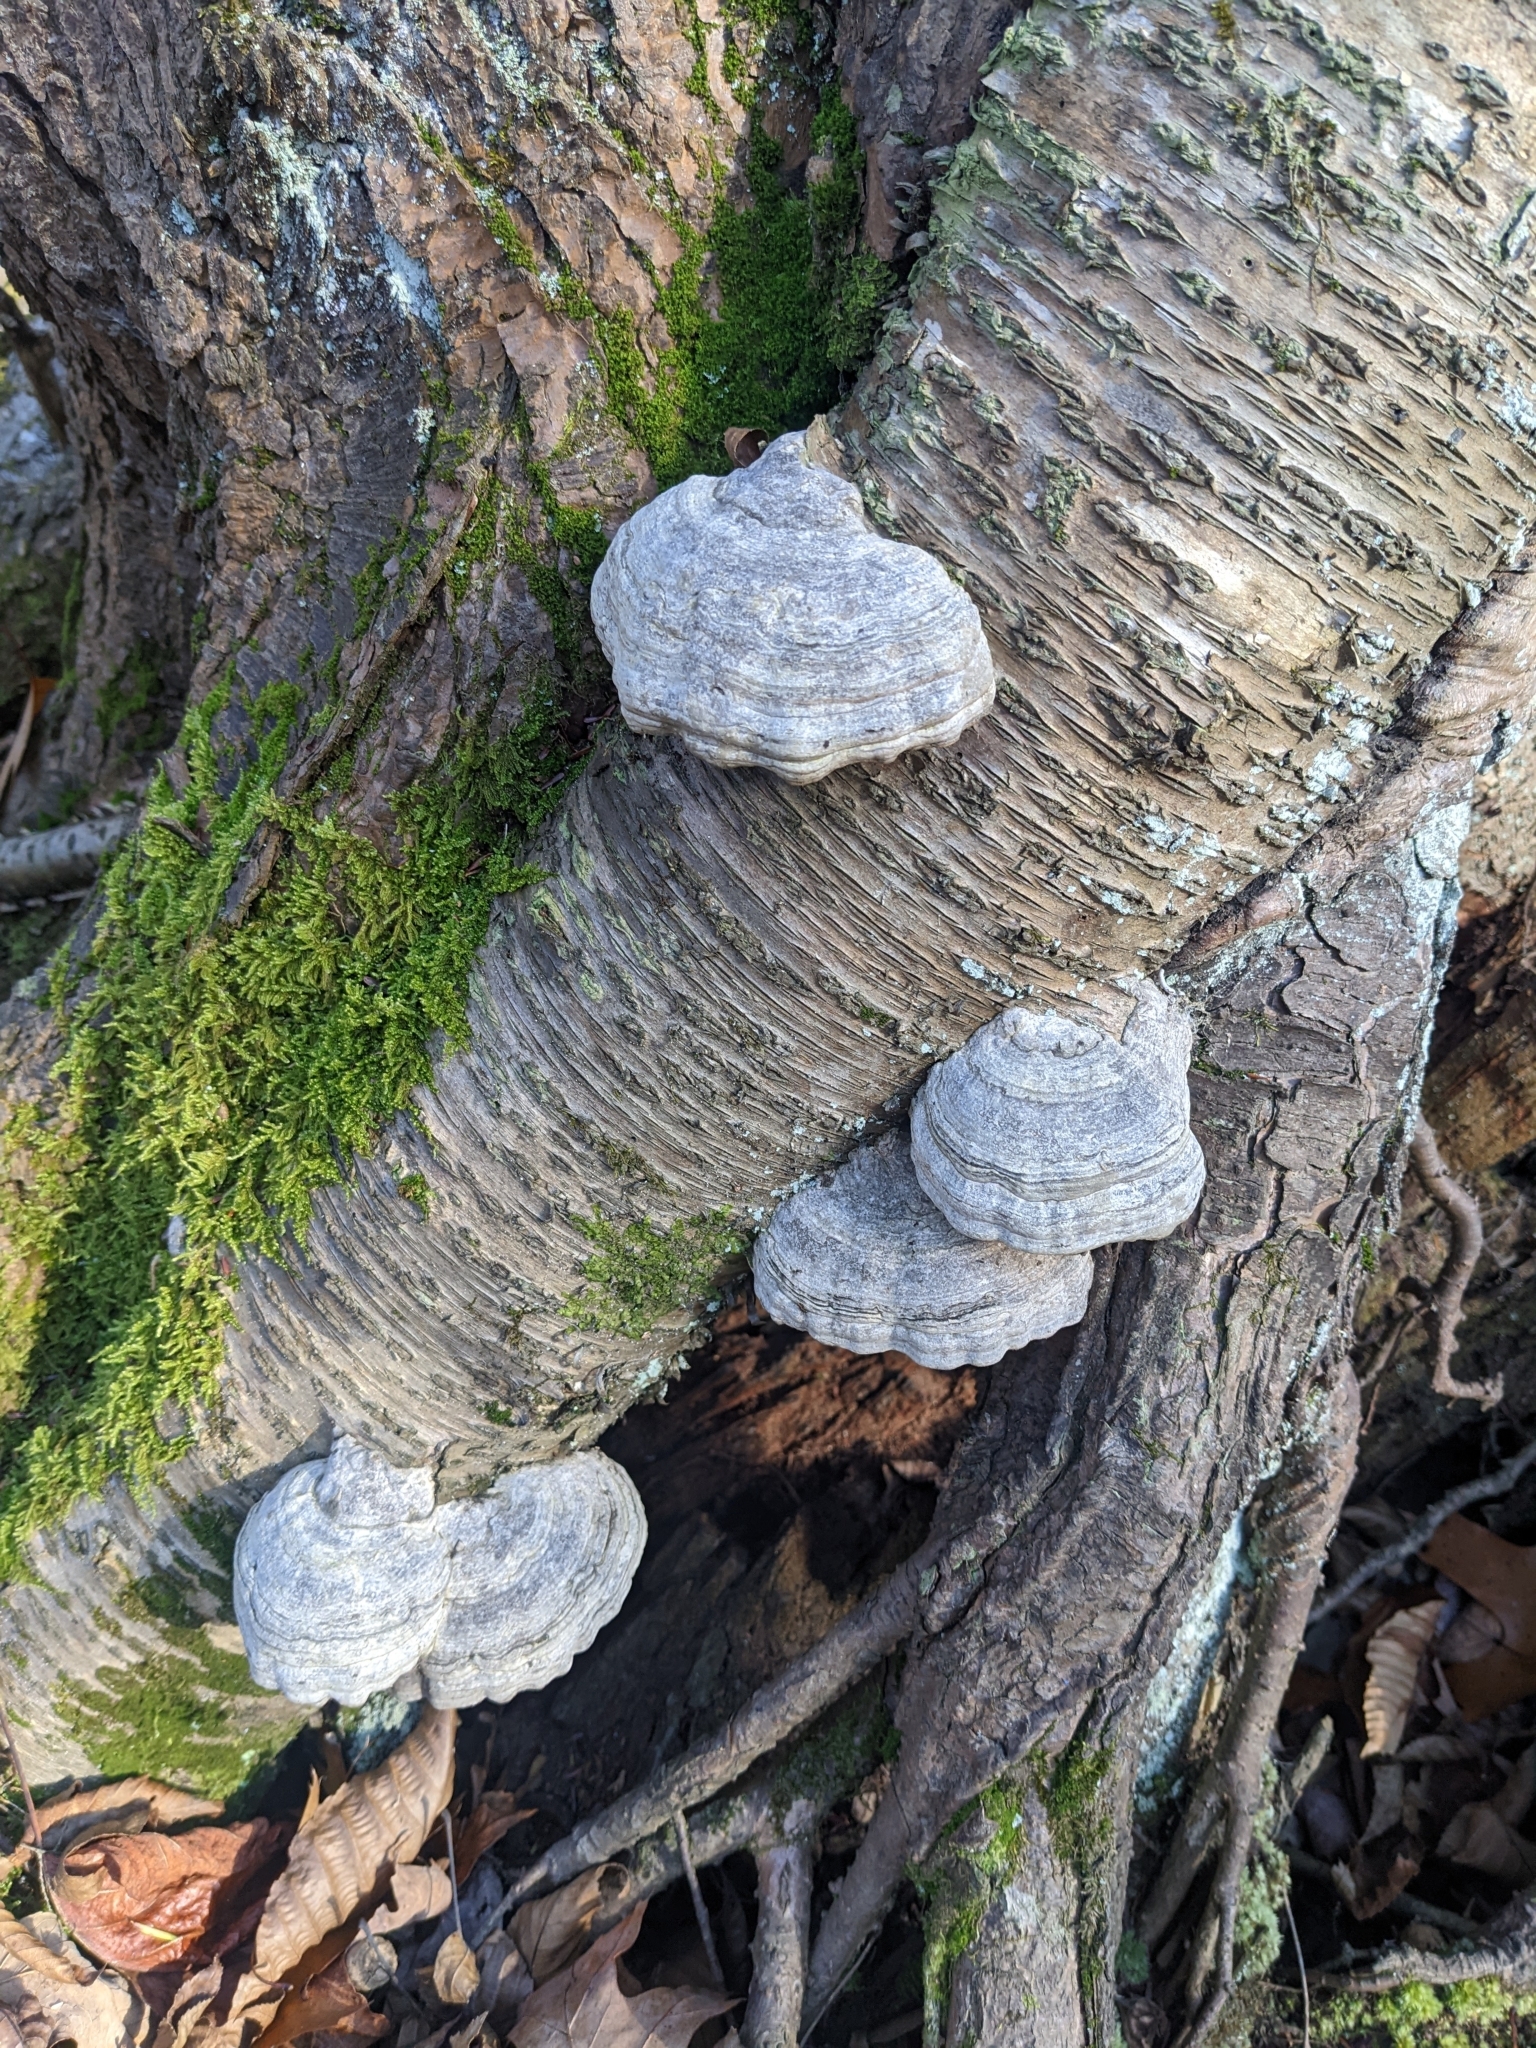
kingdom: Fungi
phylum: Basidiomycota
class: Agaricomycetes
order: Polyporales
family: Polyporaceae
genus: Fomes
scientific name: Fomes fomentarius
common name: Hoof fungus
